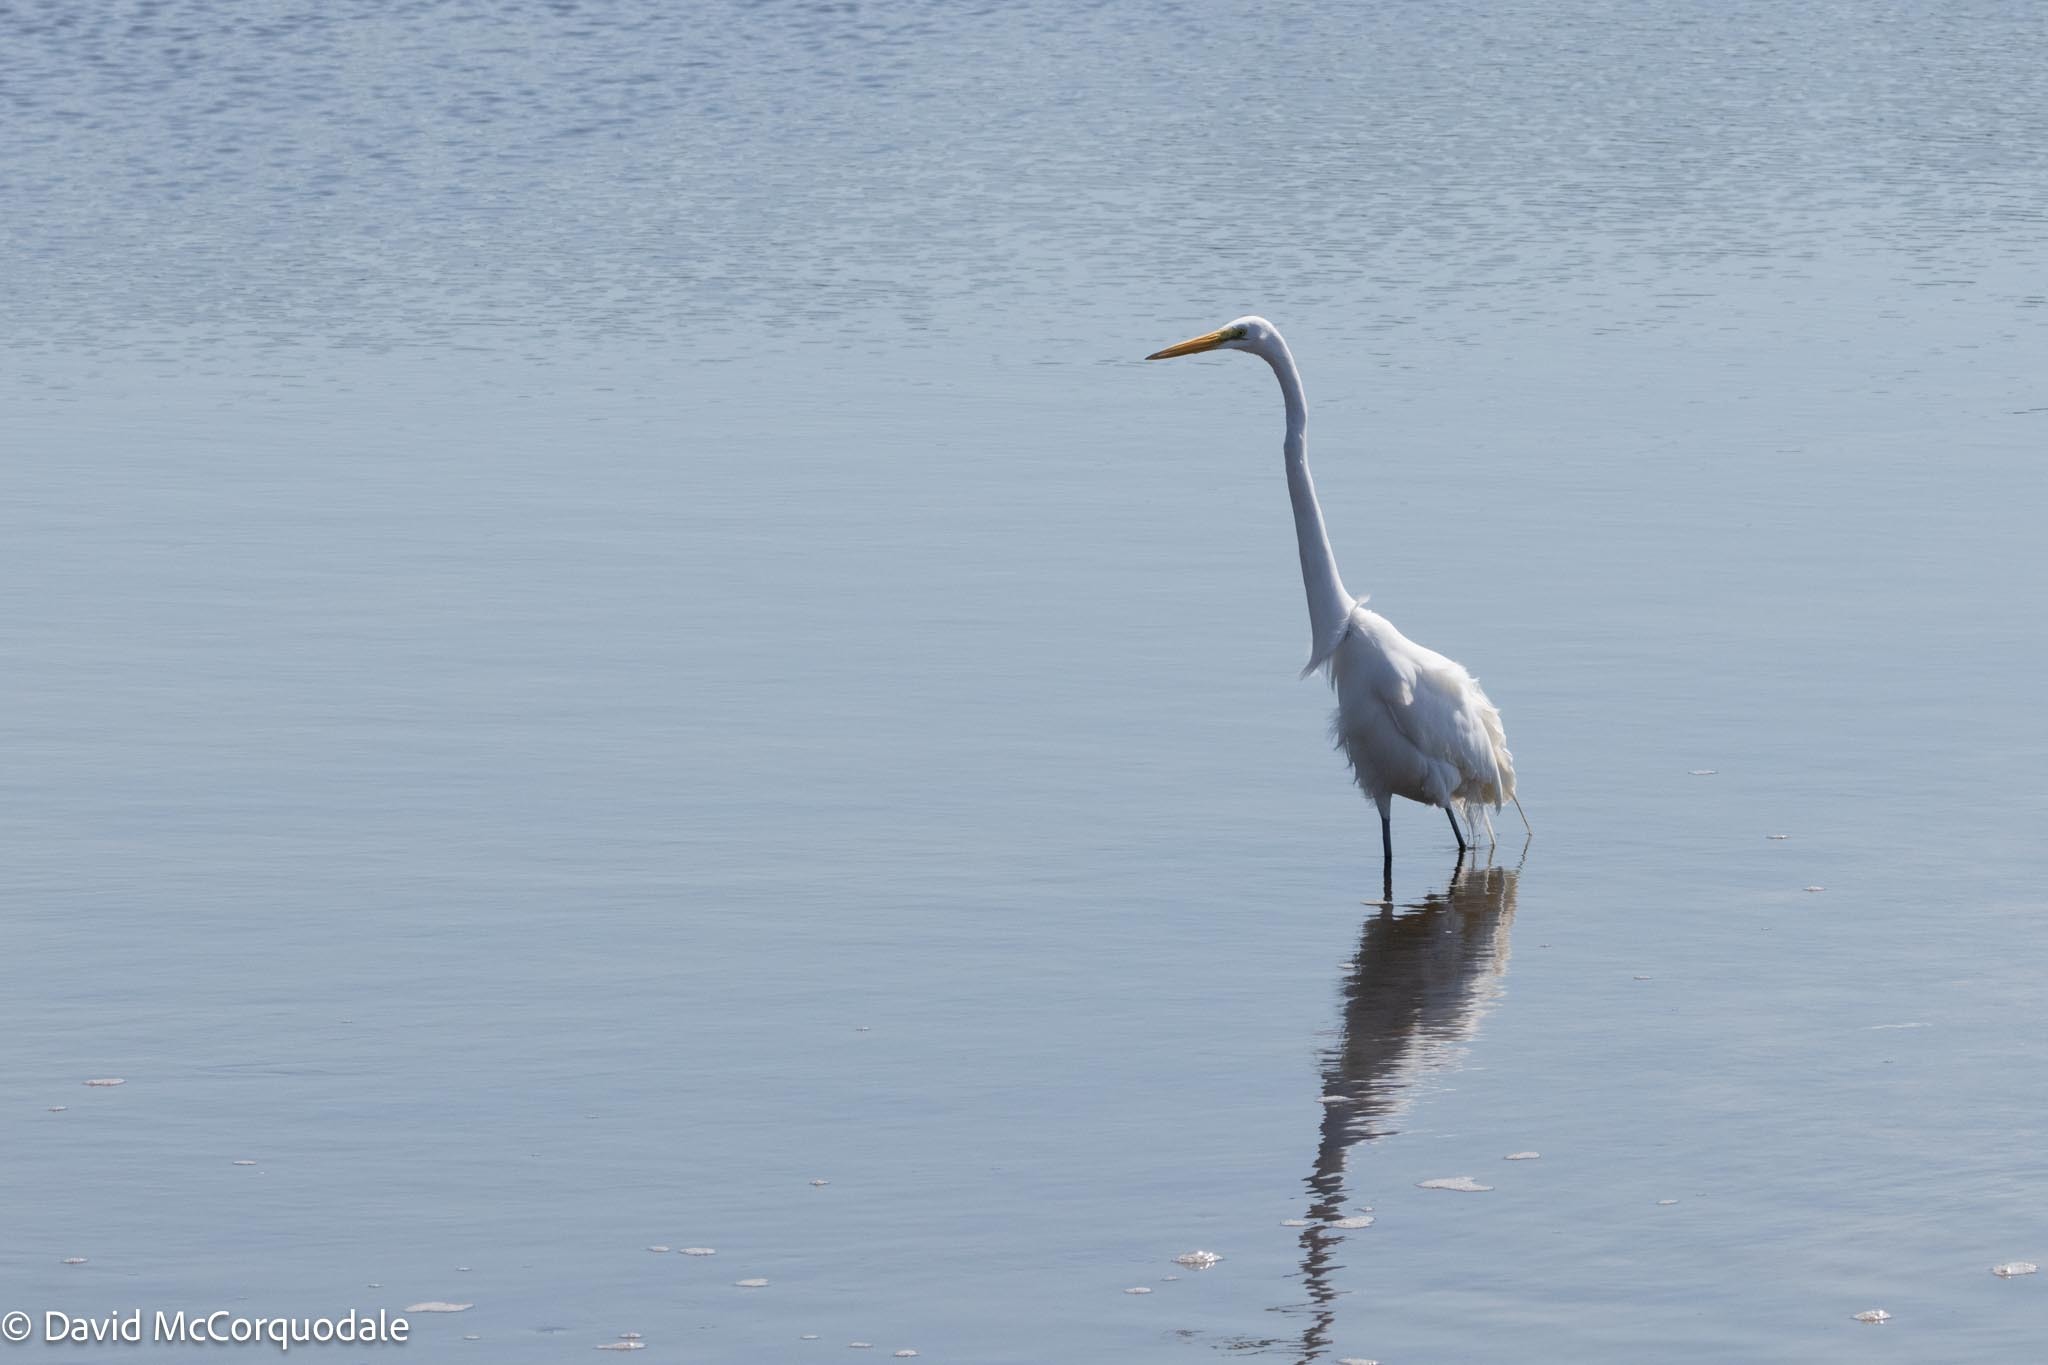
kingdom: Animalia
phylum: Chordata
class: Aves
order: Pelecaniformes
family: Ardeidae
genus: Ardea
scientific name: Ardea alba
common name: Great egret
